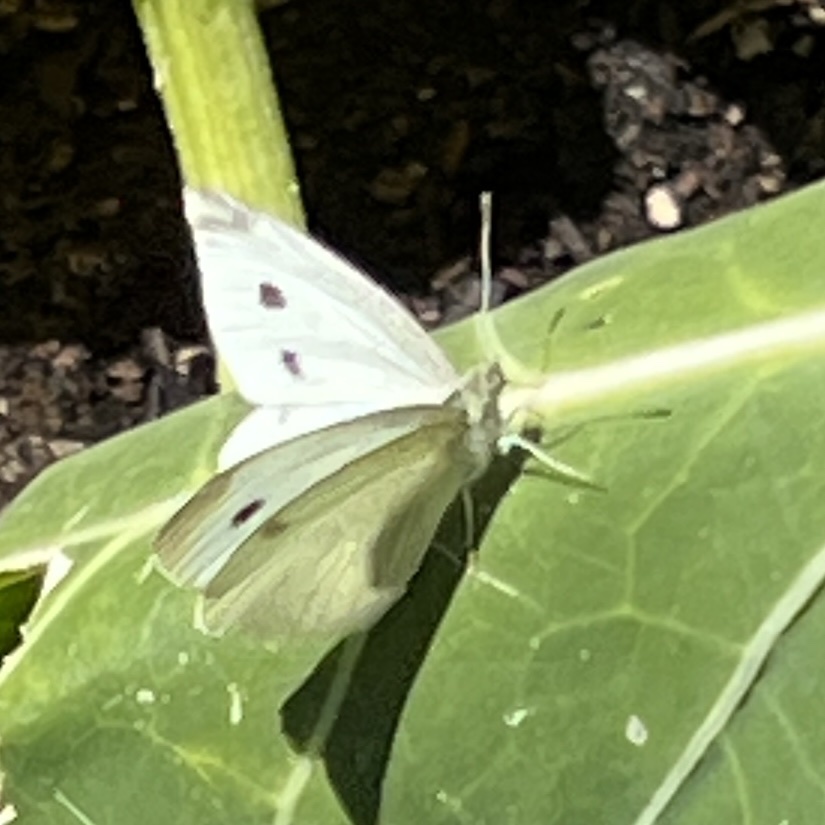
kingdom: Animalia
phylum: Arthropoda
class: Insecta
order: Lepidoptera
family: Pieridae
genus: Pieris
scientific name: Pieris rapae
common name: Small white
